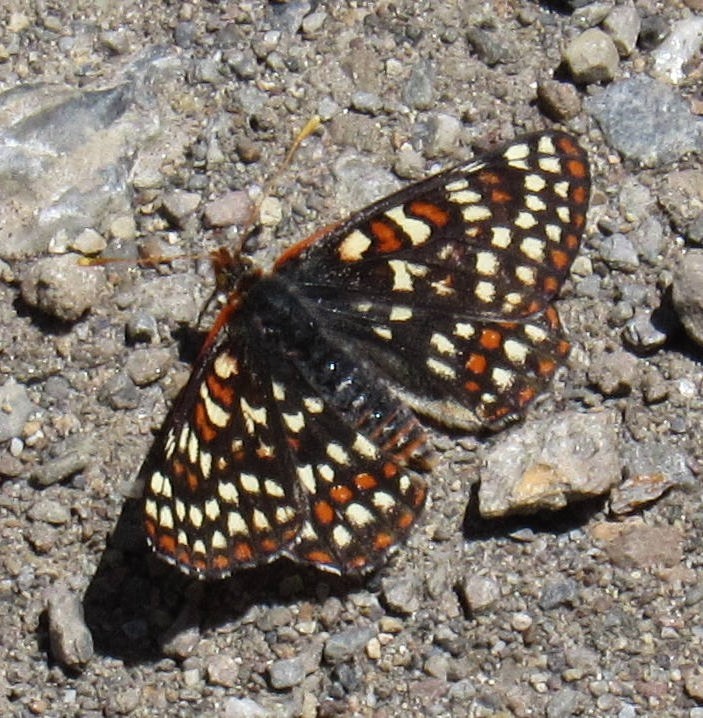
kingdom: Animalia
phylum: Arthropoda
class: Insecta
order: Lepidoptera
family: Nymphalidae
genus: Occidryas
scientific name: Occidryas anicia
